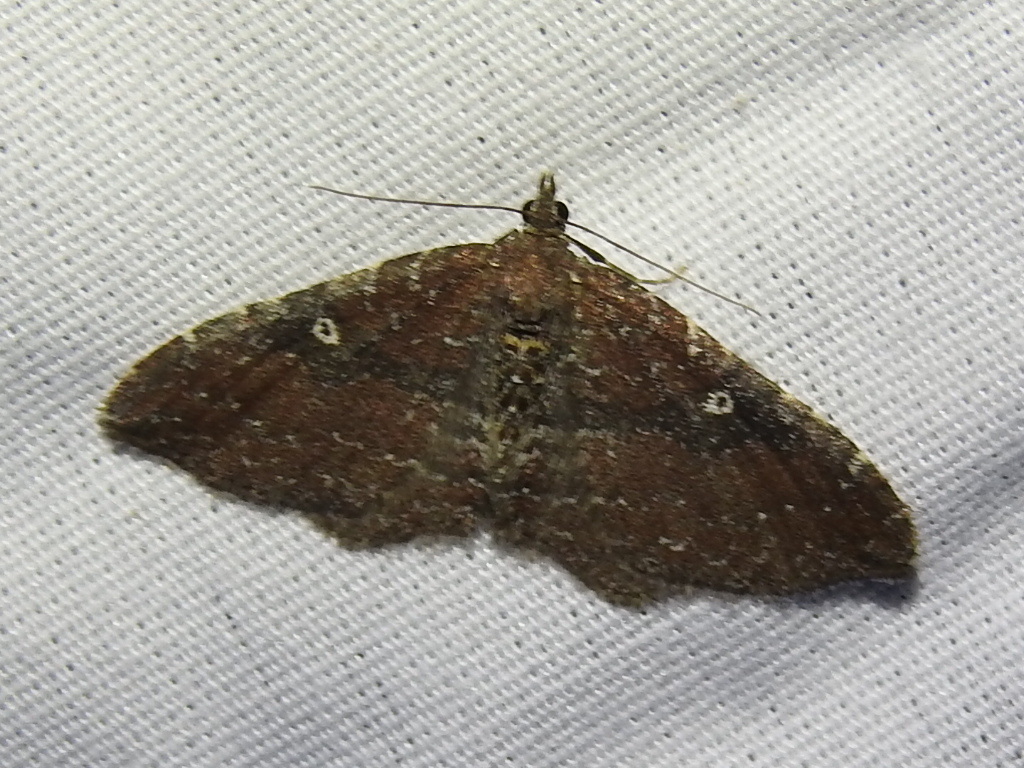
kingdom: Animalia
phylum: Arthropoda
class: Insecta
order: Lepidoptera
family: Geometridae
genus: Orthonama
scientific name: Orthonama obstipata
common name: The gem
